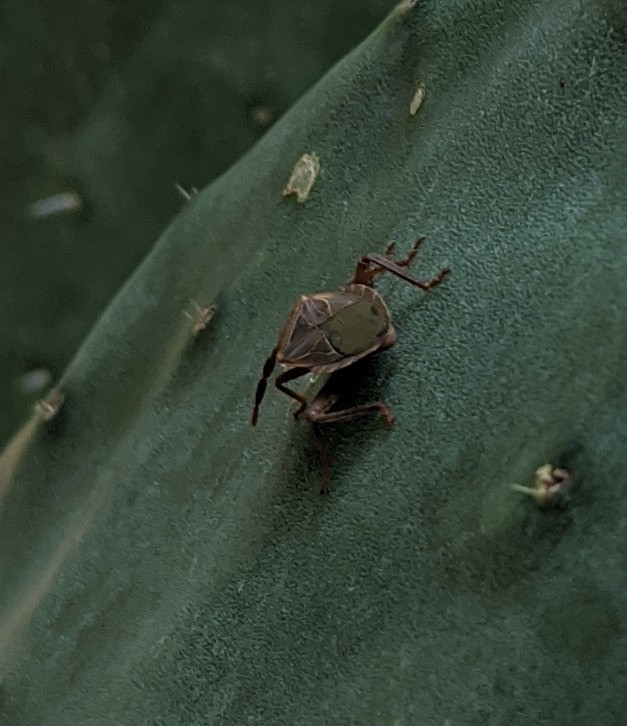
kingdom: Animalia
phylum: Arthropoda
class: Insecta
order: Hemiptera
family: Coreidae
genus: Chelinidea
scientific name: Chelinidea vittiger
